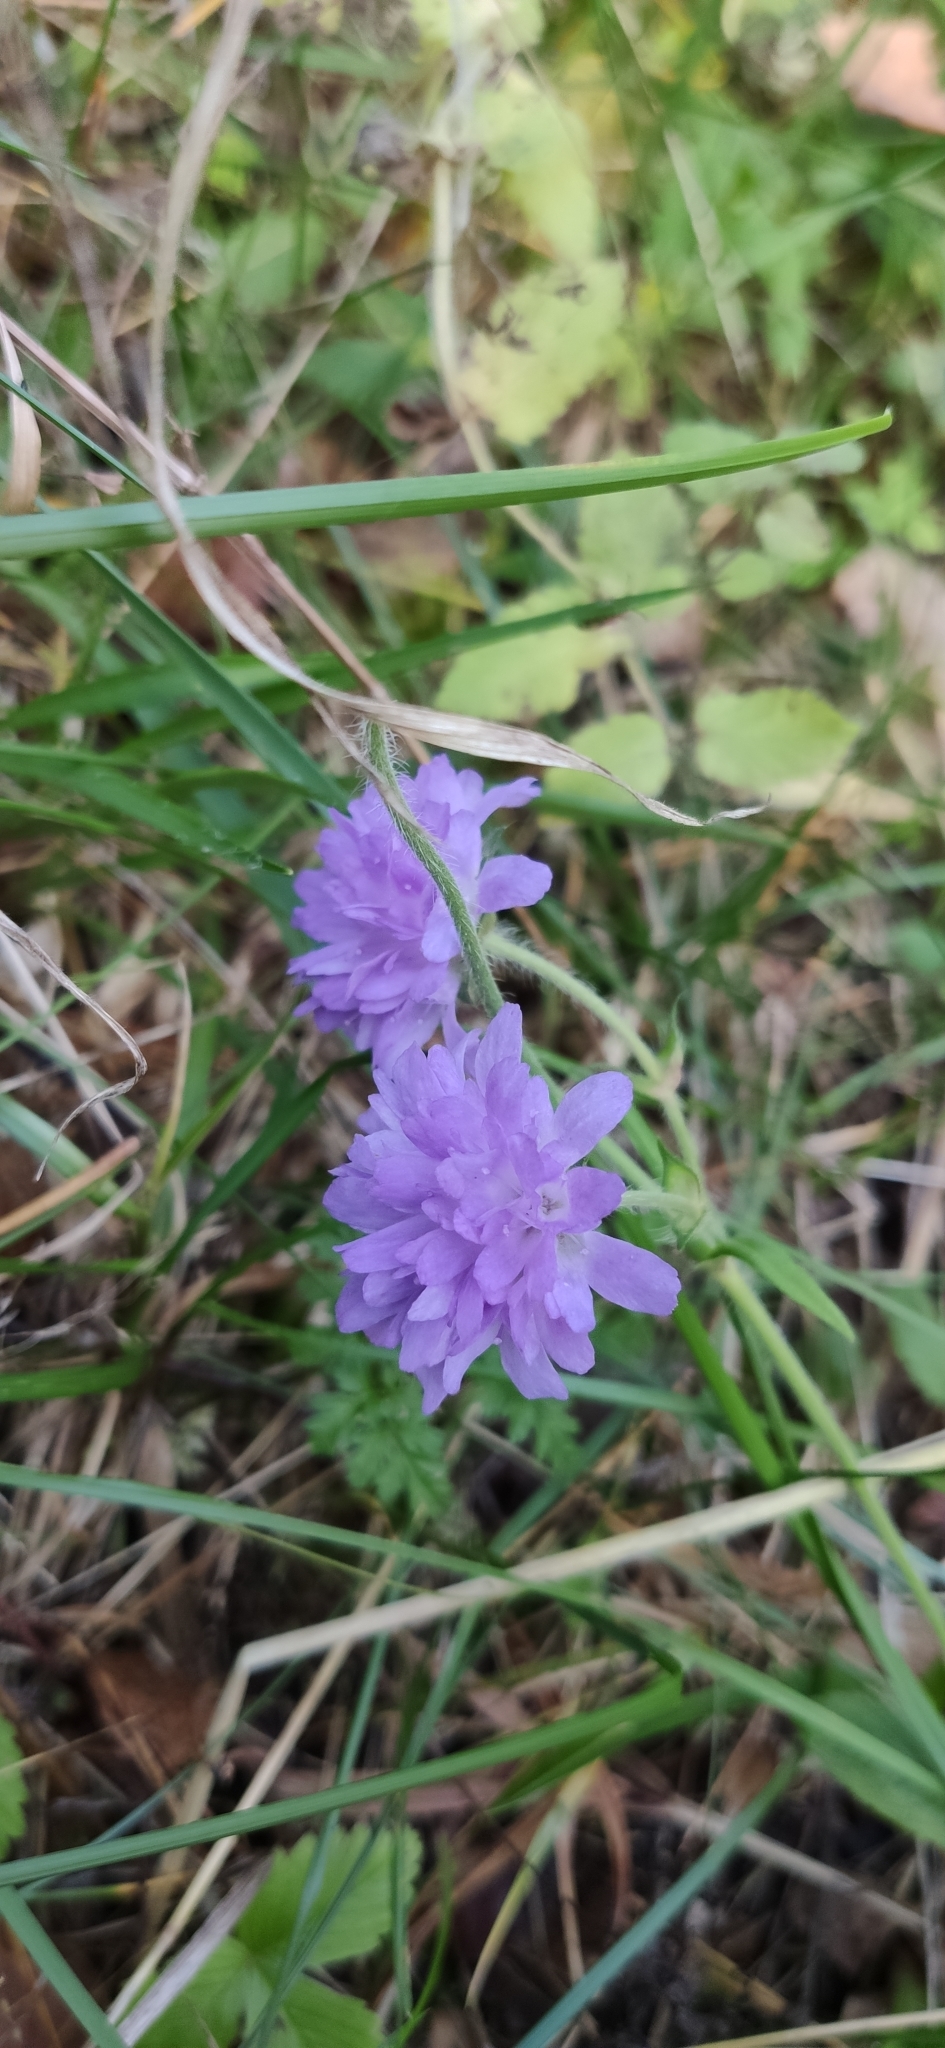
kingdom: Plantae
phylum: Tracheophyta
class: Magnoliopsida
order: Dipsacales
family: Caprifoliaceae
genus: Knautia
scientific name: Knautia arvensis
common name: Field scabiosa
